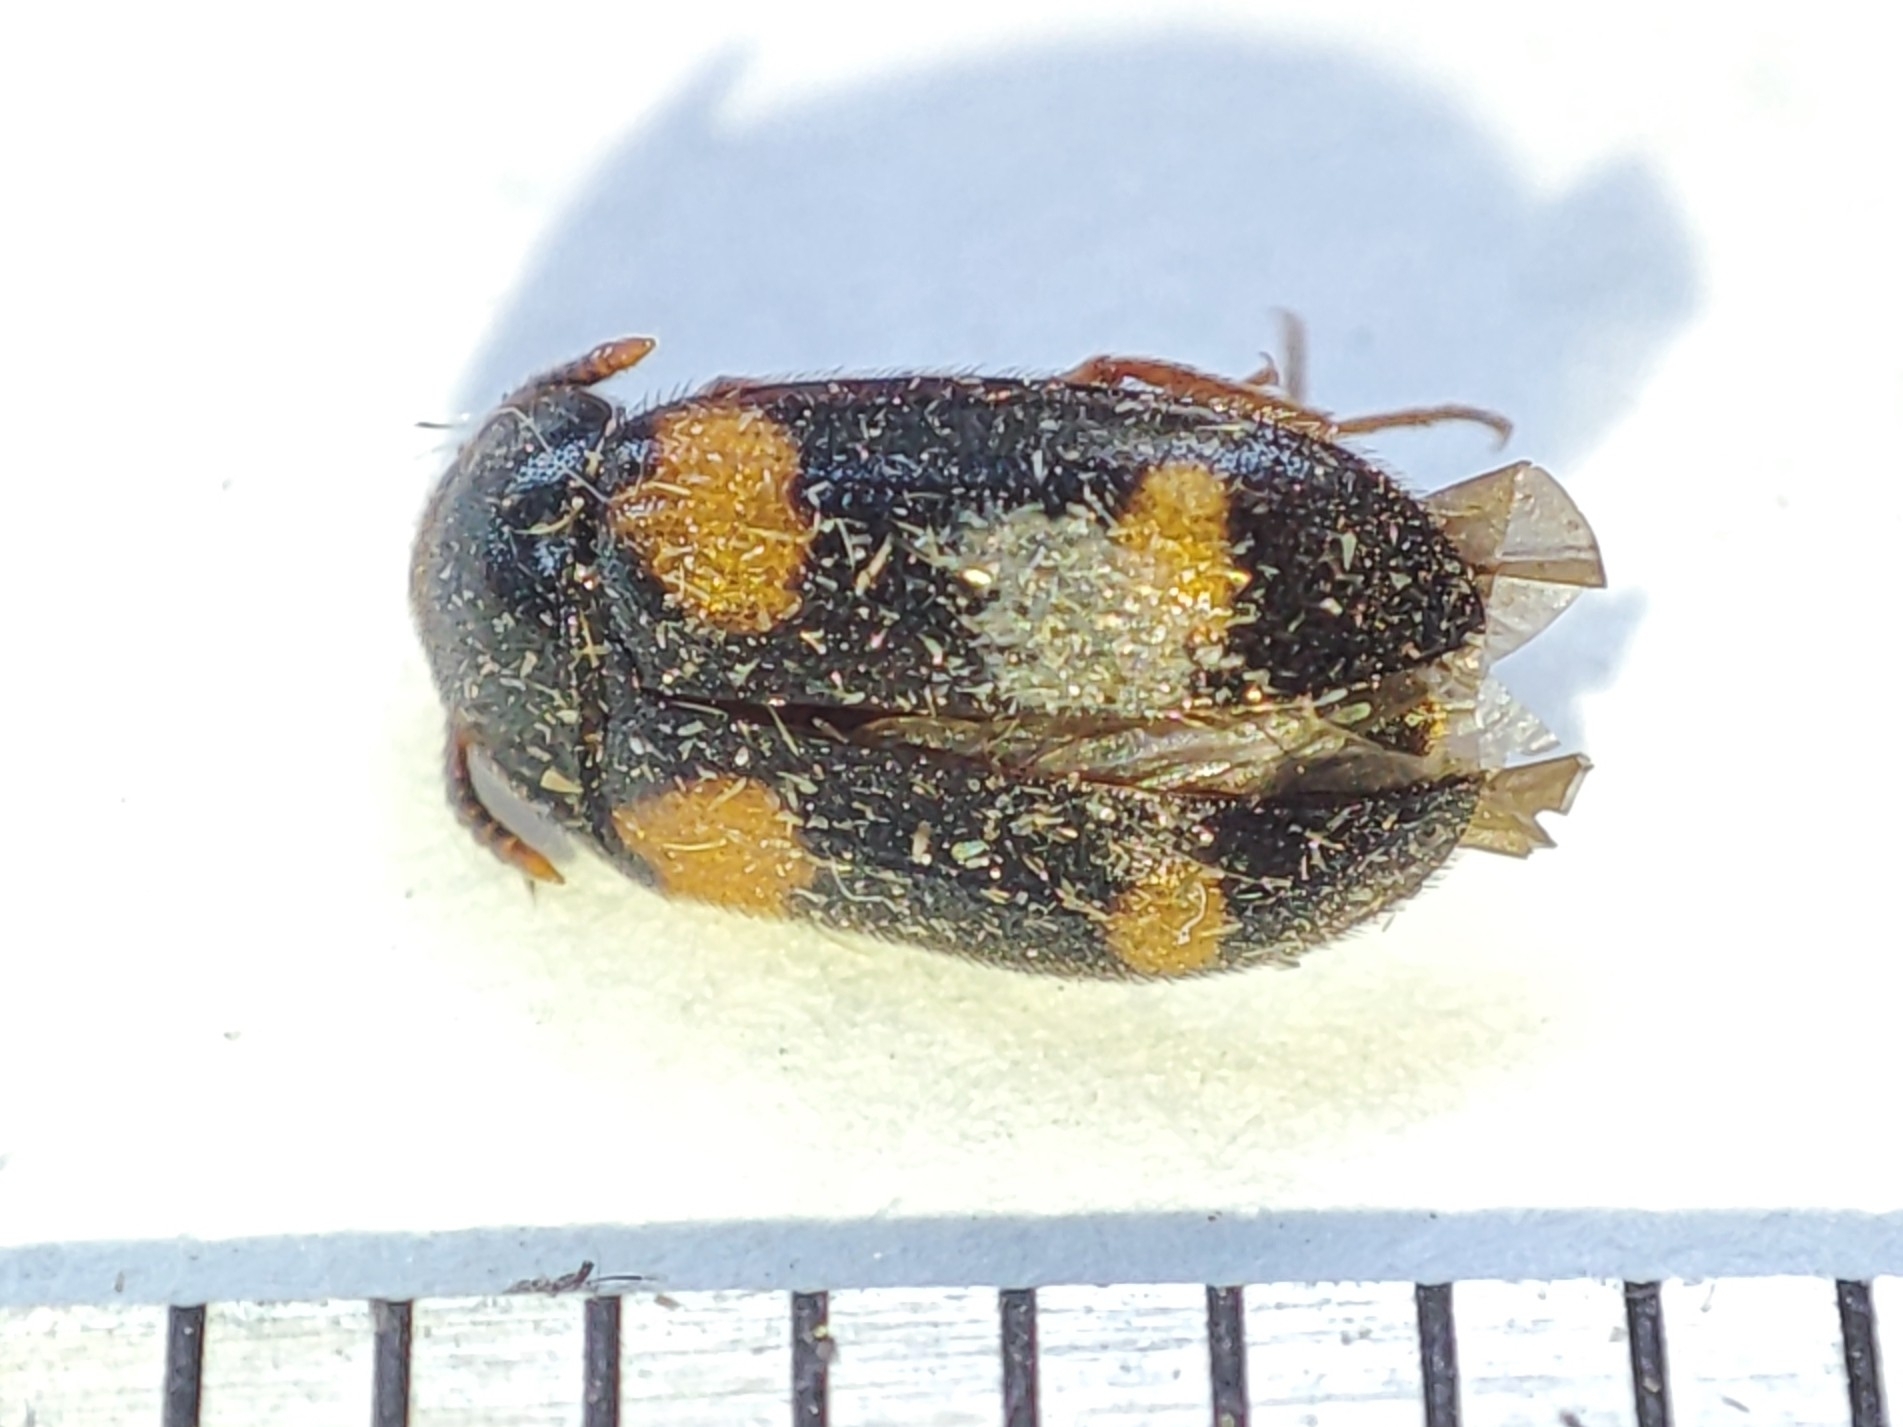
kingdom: Animalia
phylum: Arthropoda
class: Insecta
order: Coleoptera
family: Mycetophagidae
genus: Mycetophagus
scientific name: Mycetophagus quadripustulatus
